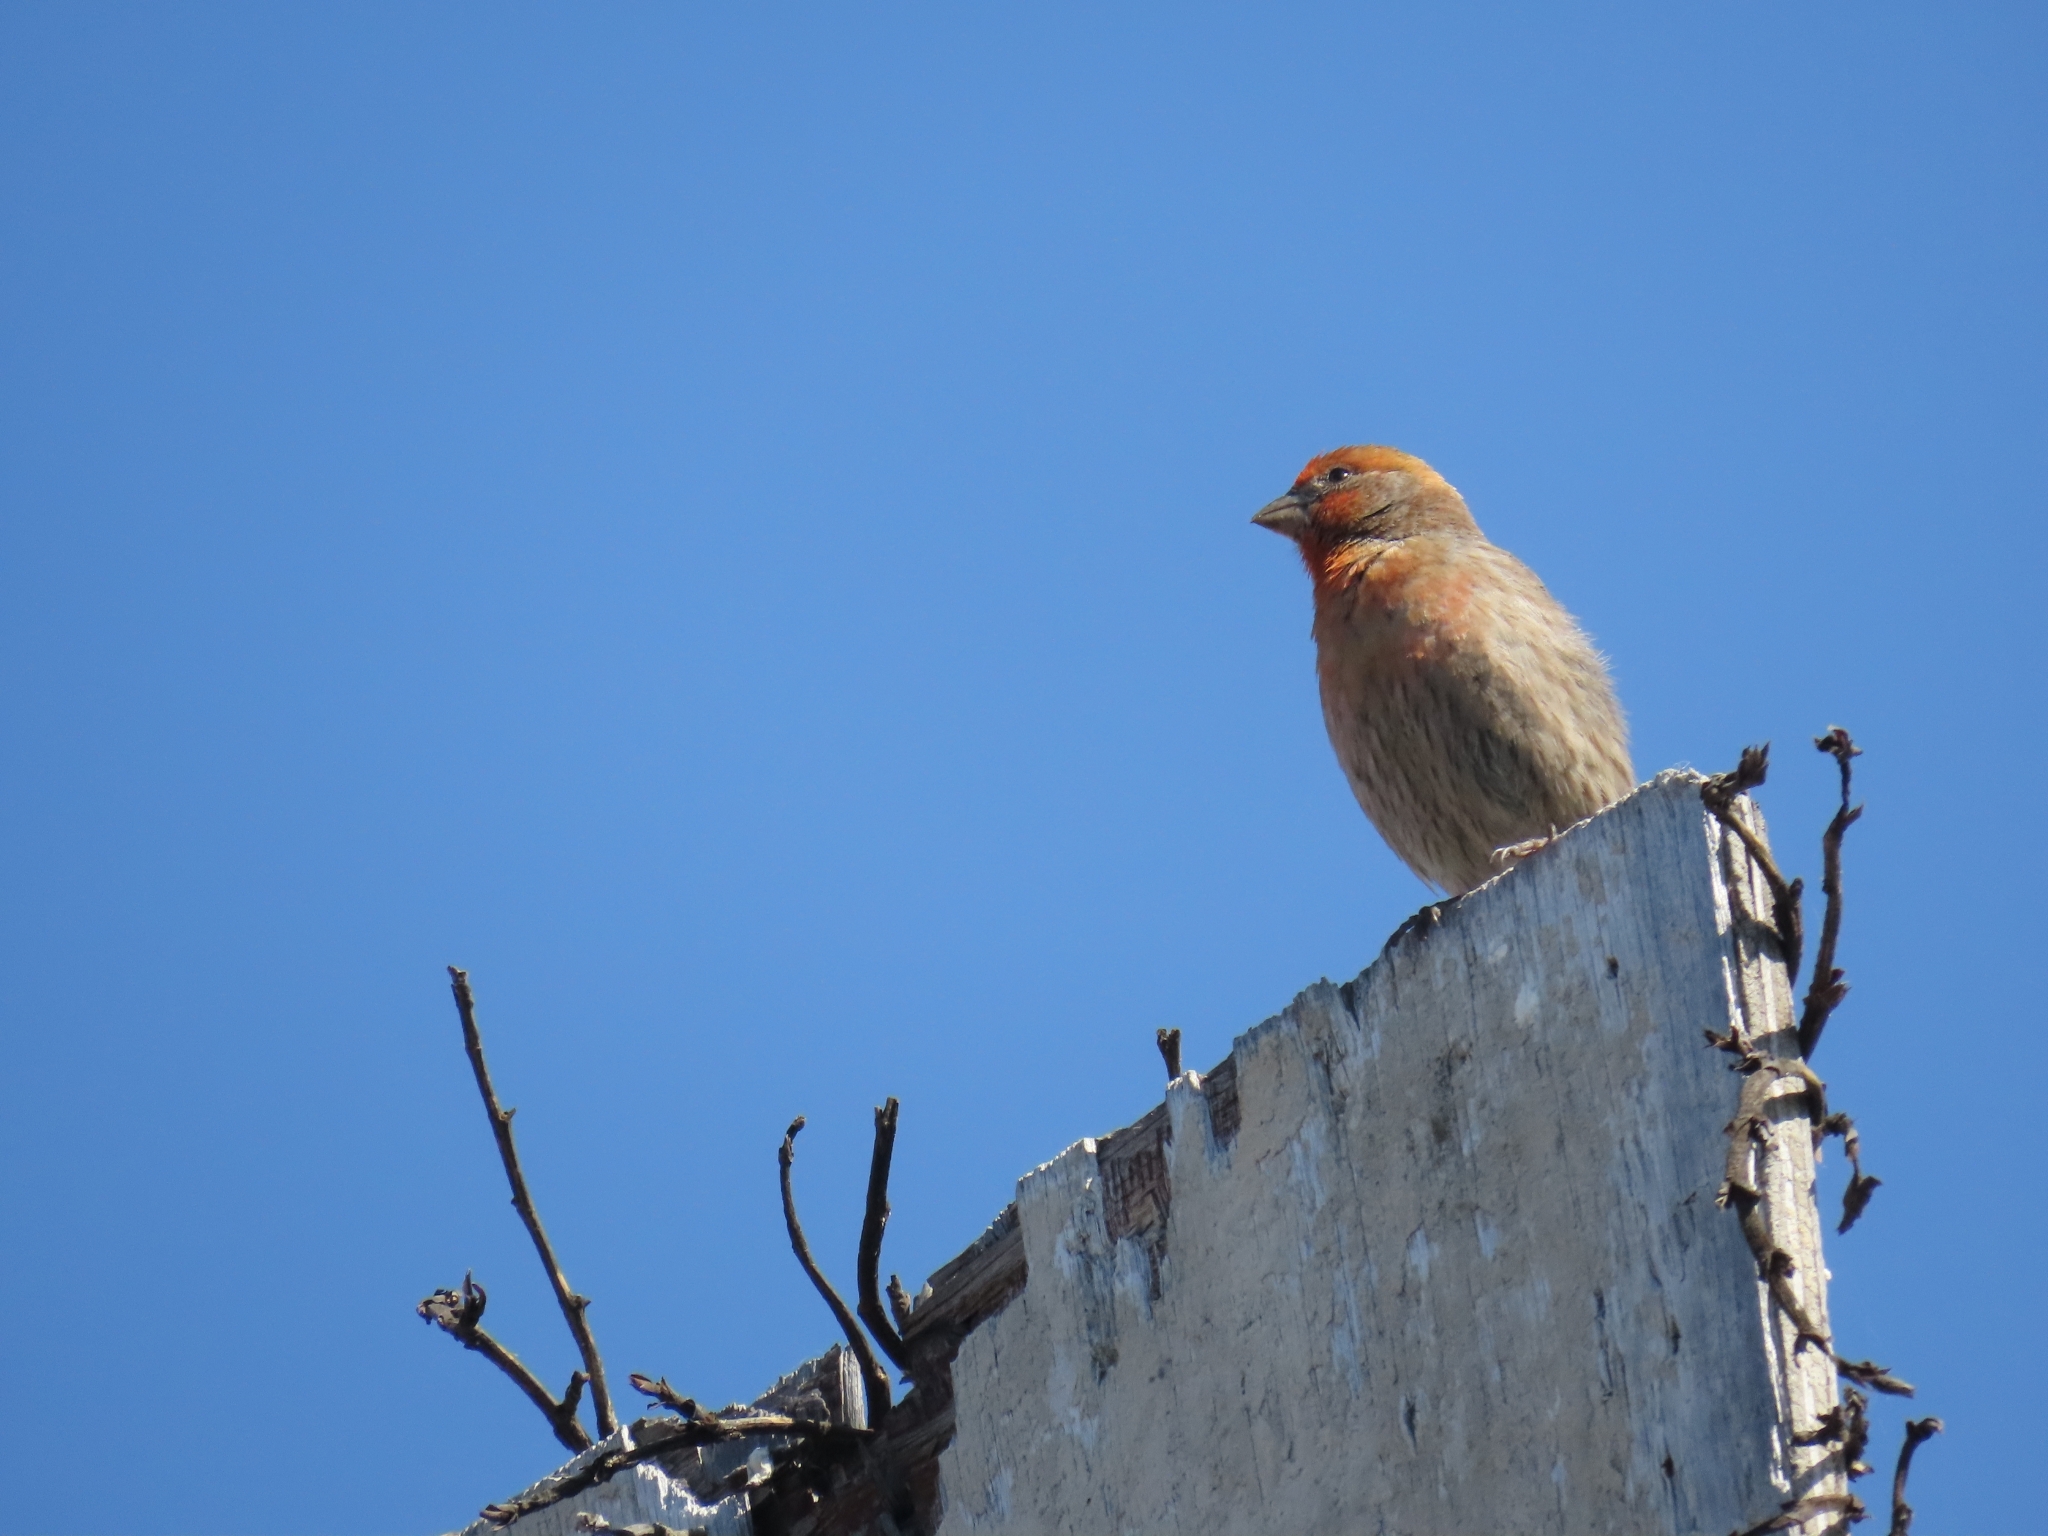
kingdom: Animalia
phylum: Chordata
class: Aves
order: Passeriformes
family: Fringillidae
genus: Haemorhous
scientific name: Haemorhous mexicanus
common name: House finch
